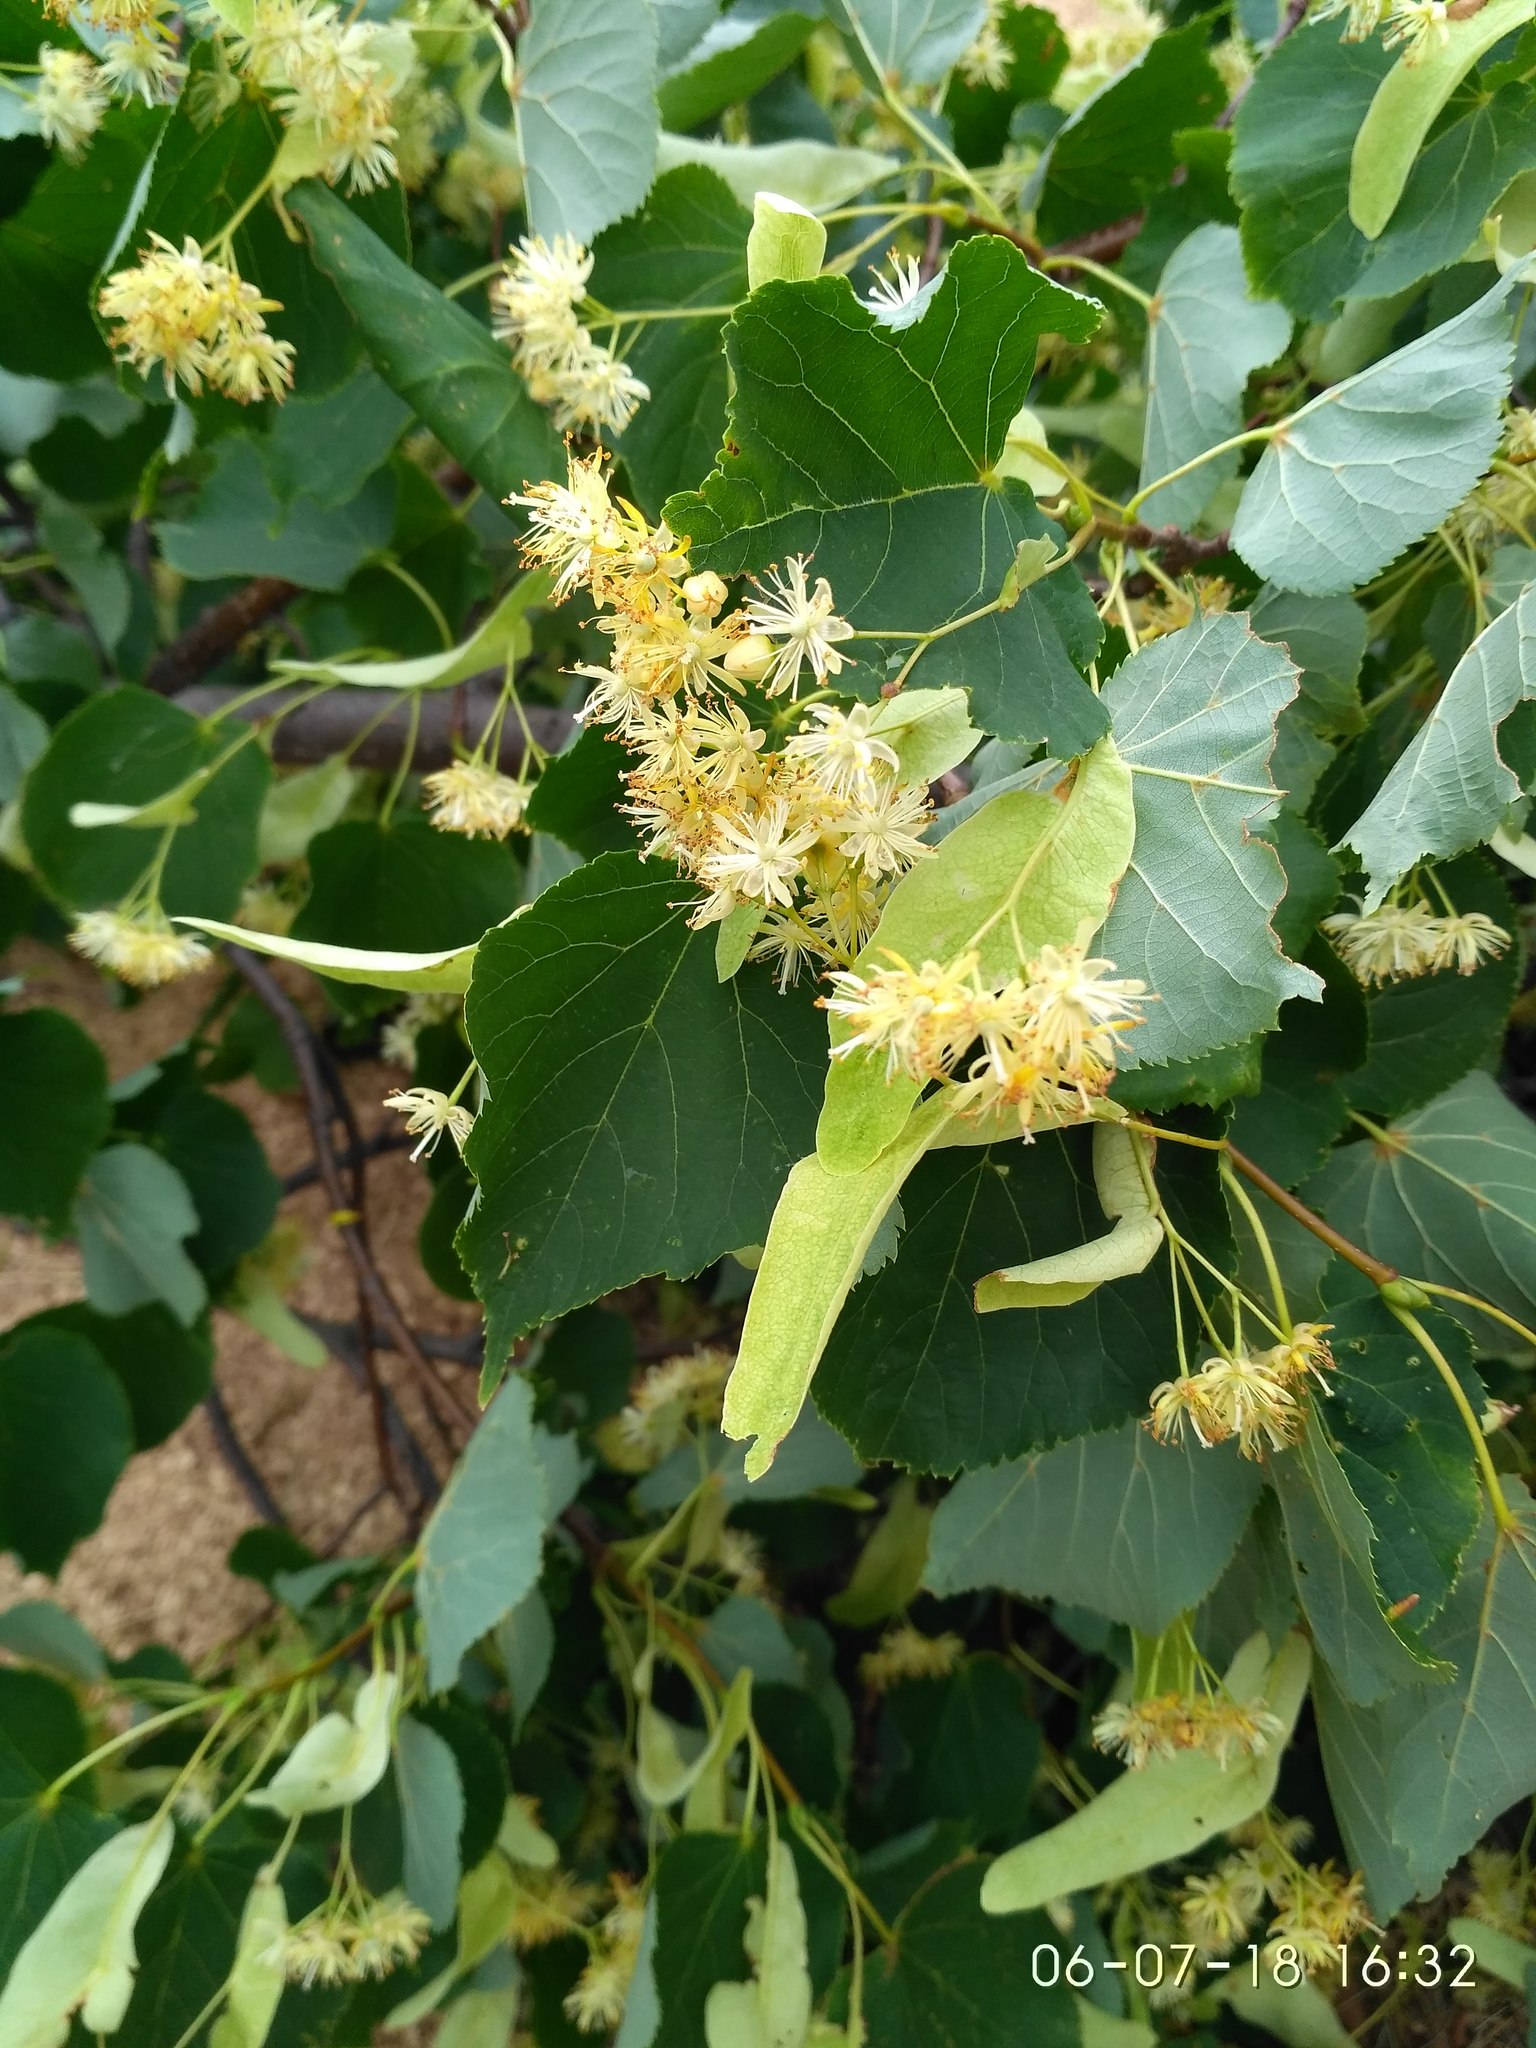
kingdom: Plantae
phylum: Tracheophyta
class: Magnoliopsida
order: Malvales
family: Malvaceae
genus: Tilia
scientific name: Tilia cordata
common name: Small-leaved lime
